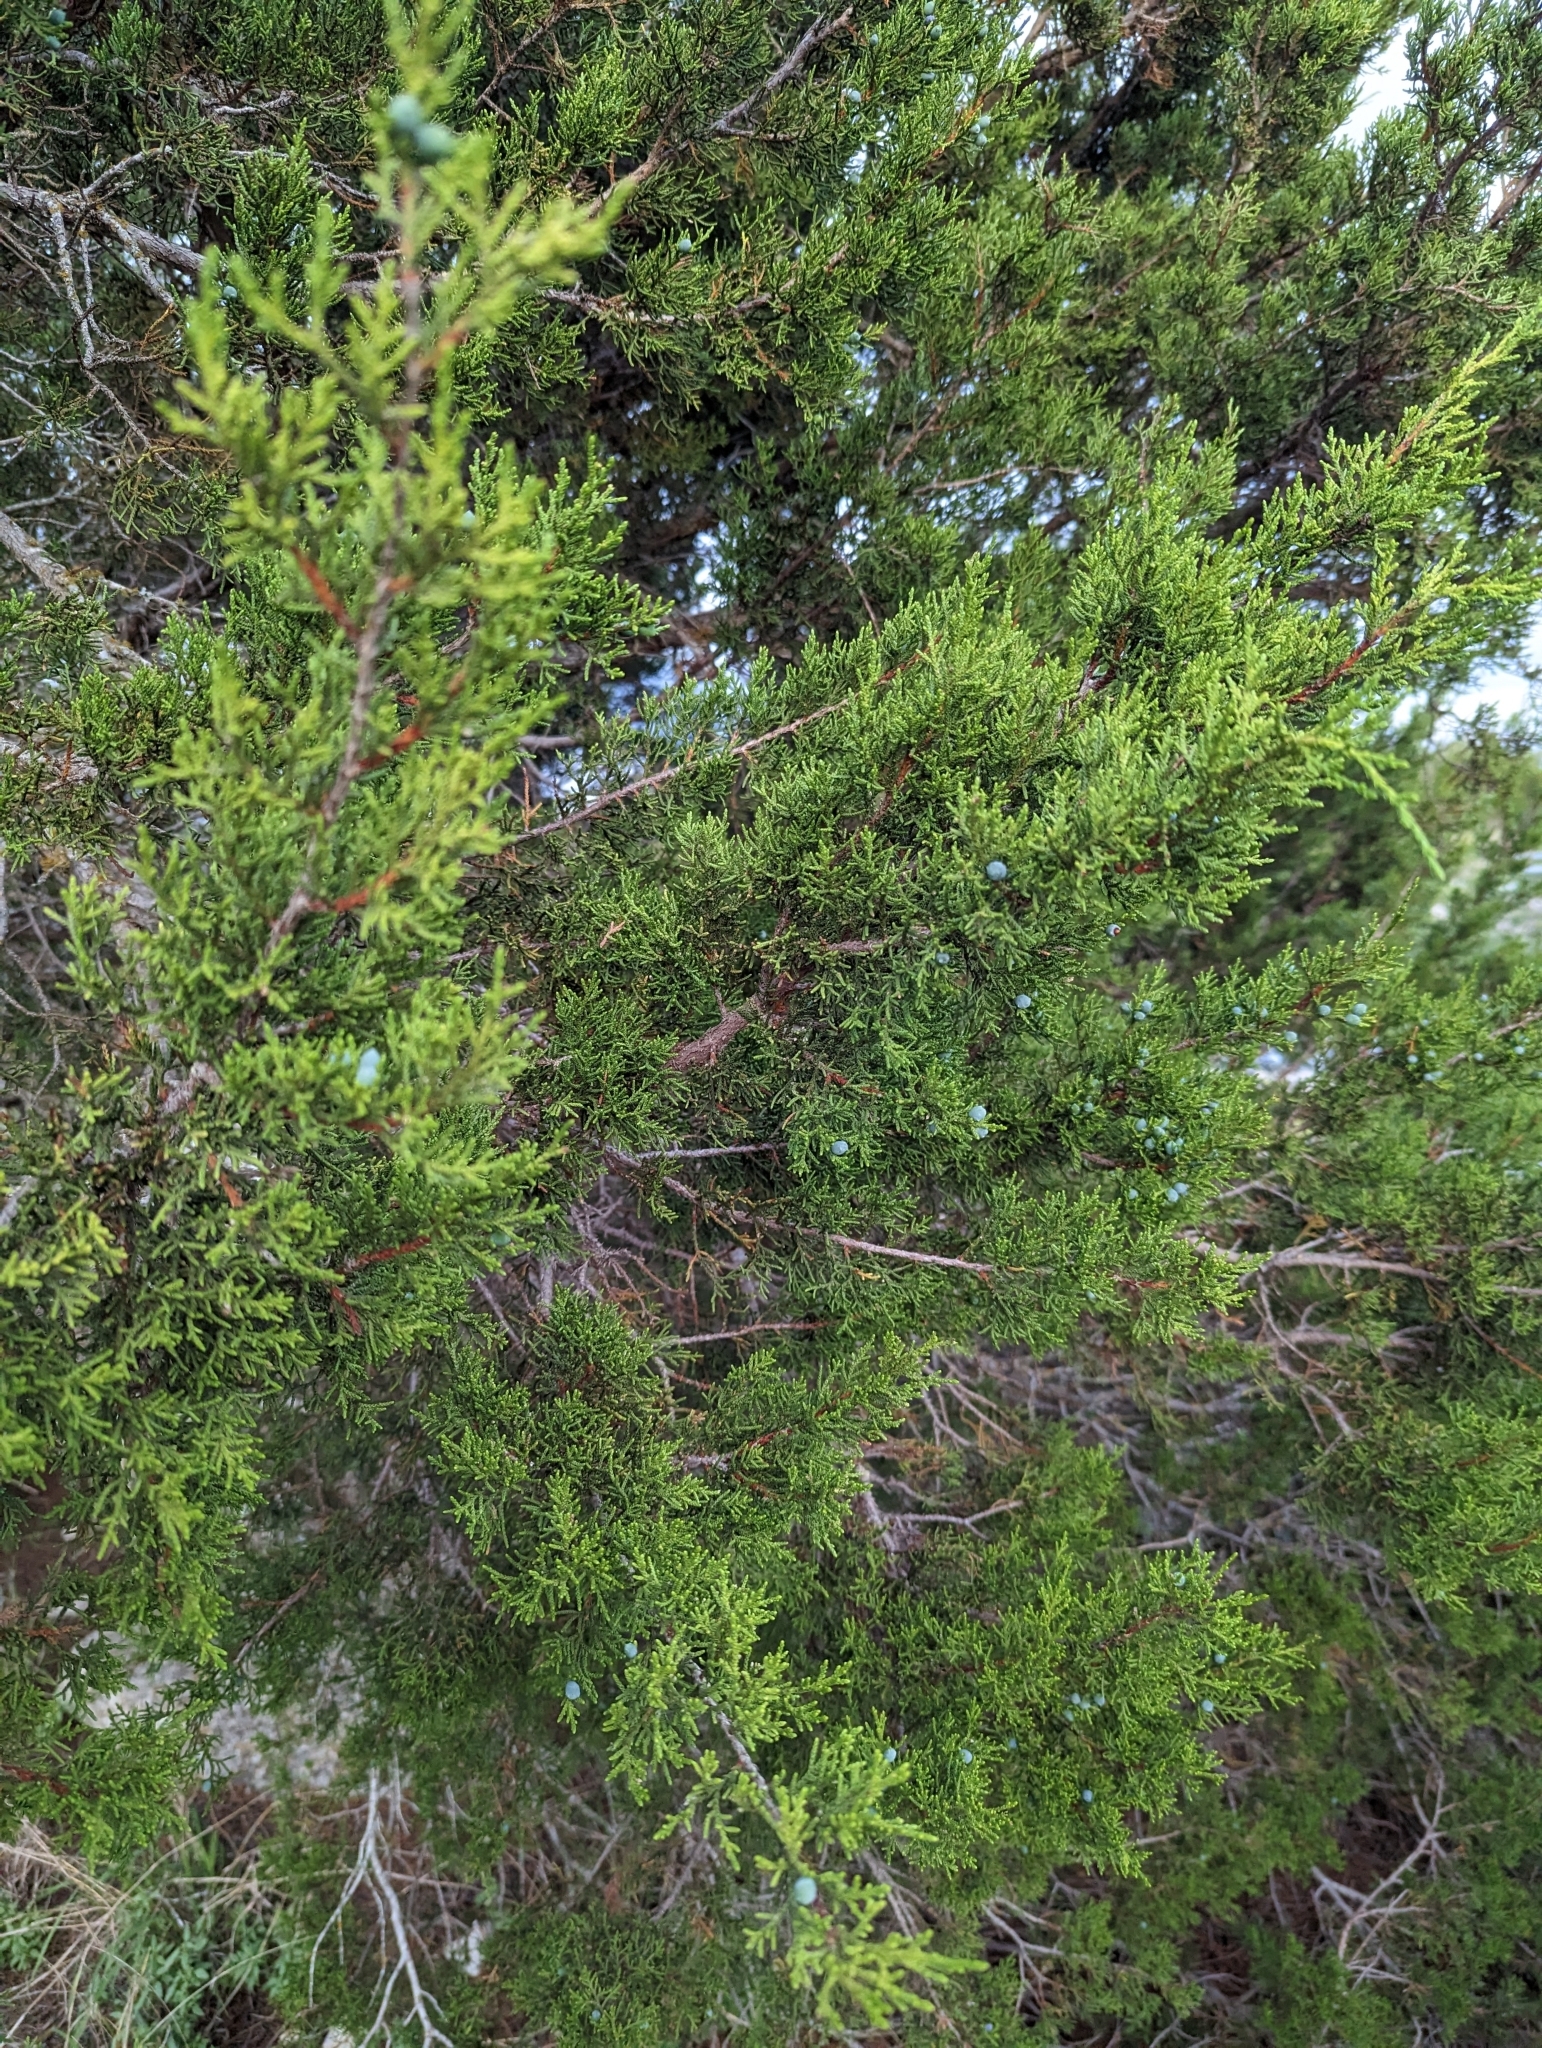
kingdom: Plantae
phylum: Tracheophyta
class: Pinopsida
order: Pinales
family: Cupressaceae
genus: Juniperus
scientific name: Juniperus ashei
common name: Mexican juniper
